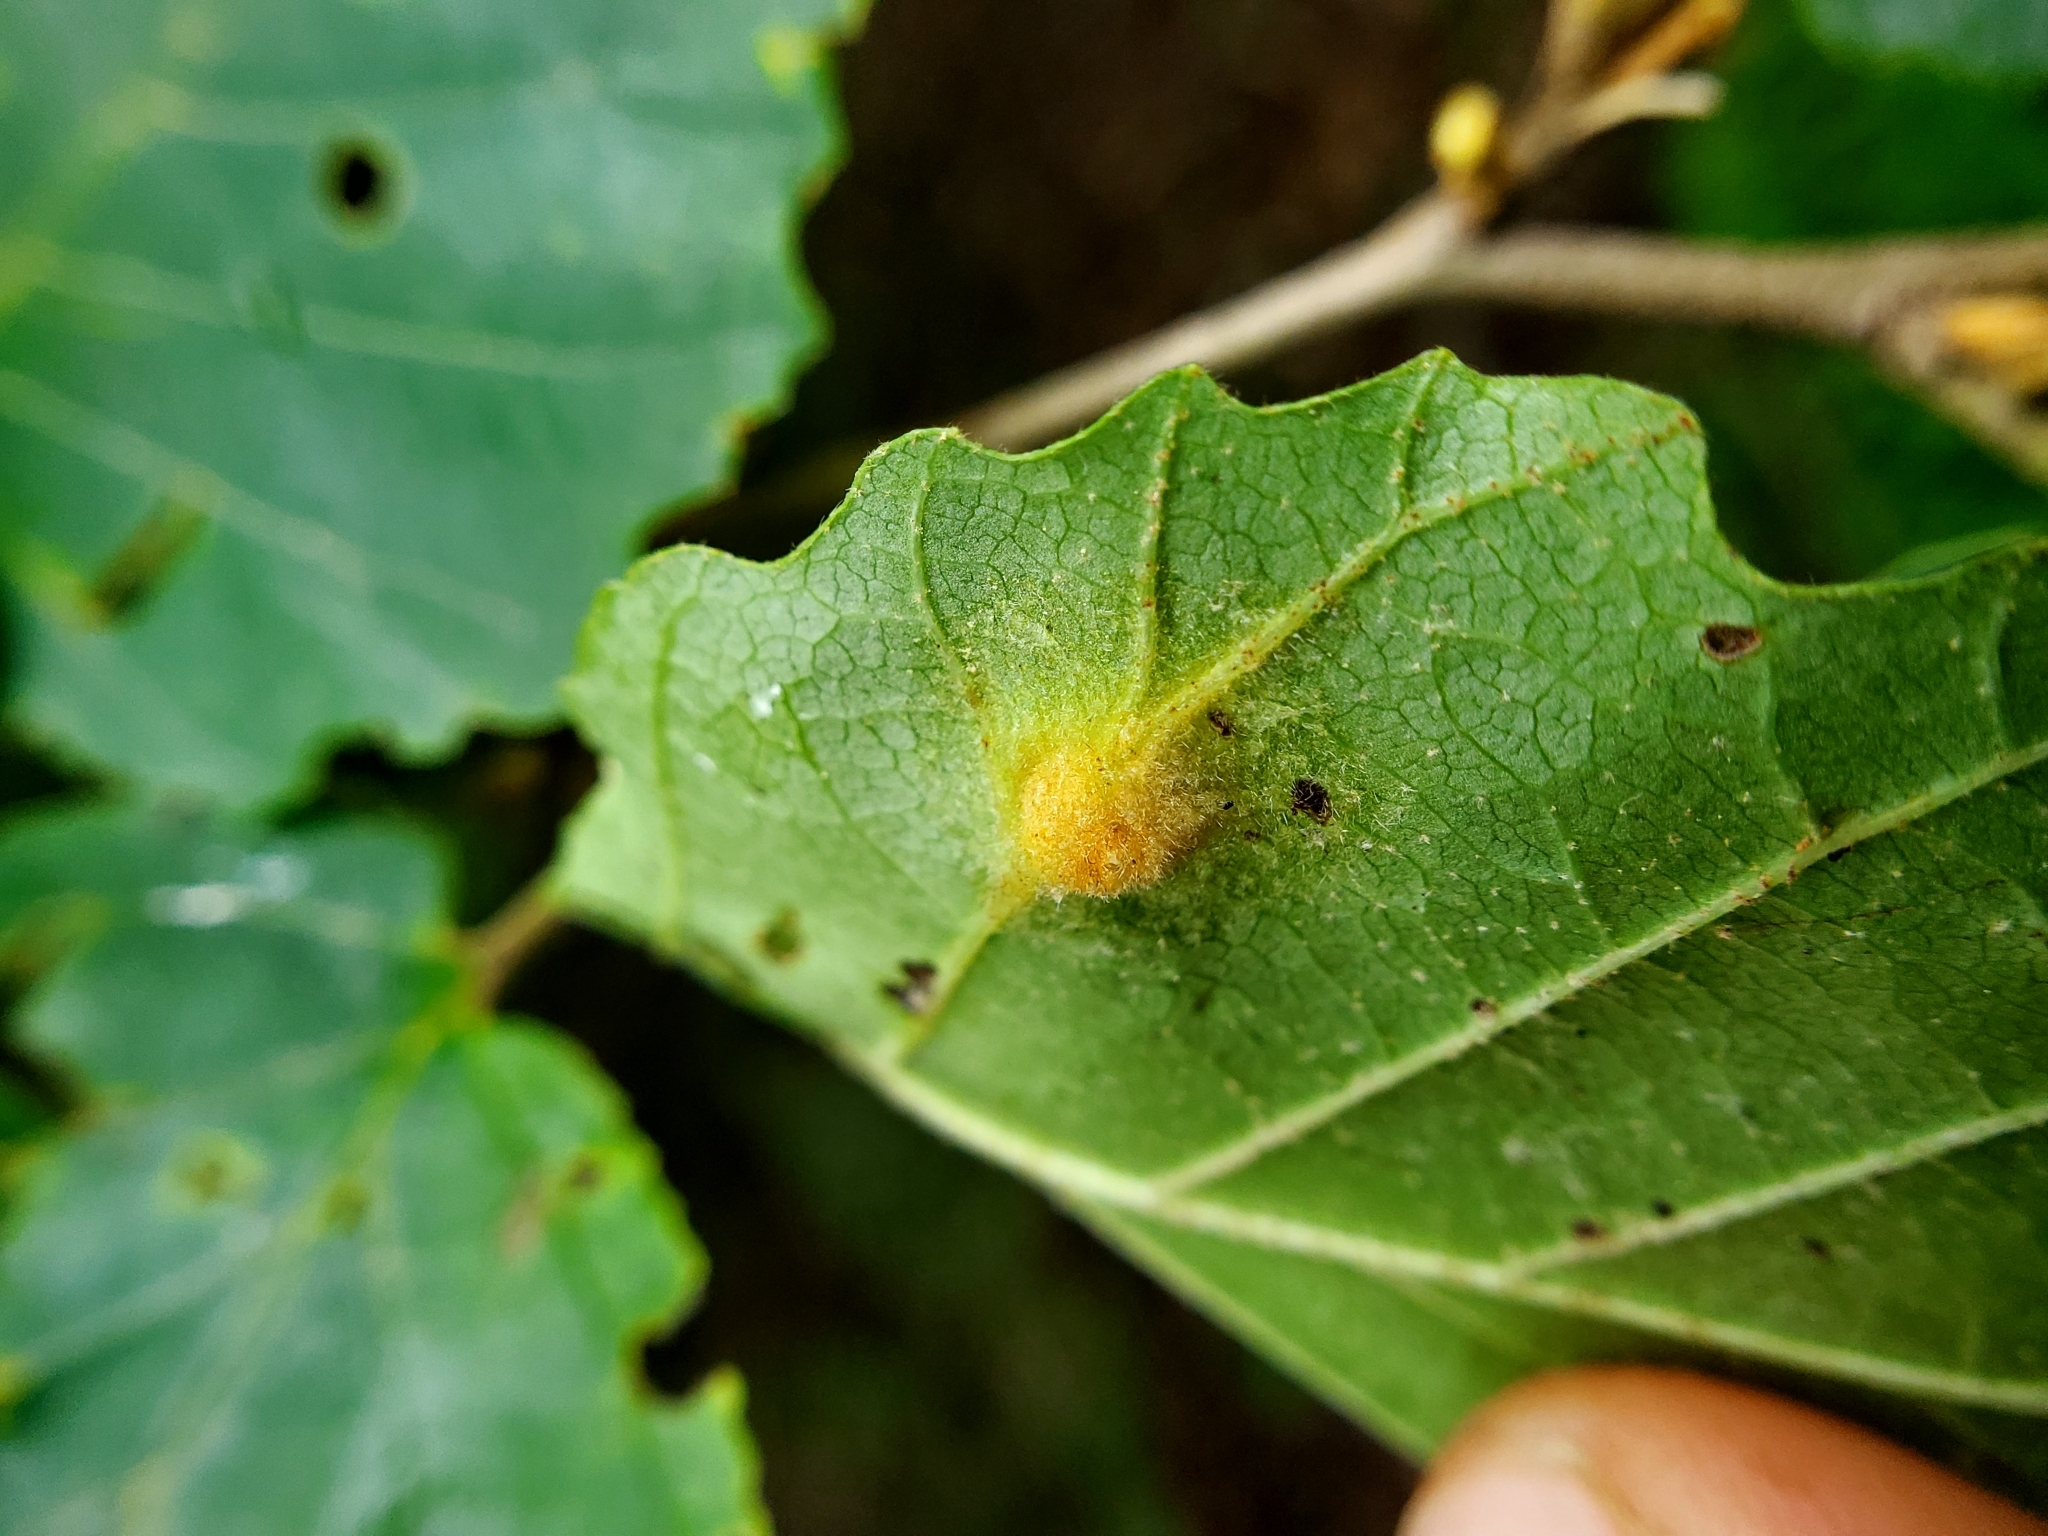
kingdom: Animalia
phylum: Arthropoda
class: Insecta
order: Hemiptera
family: Aphididae
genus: Hormaphis
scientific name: Hormaphis hamamelidis
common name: Witch-hazel cone gall aphid
